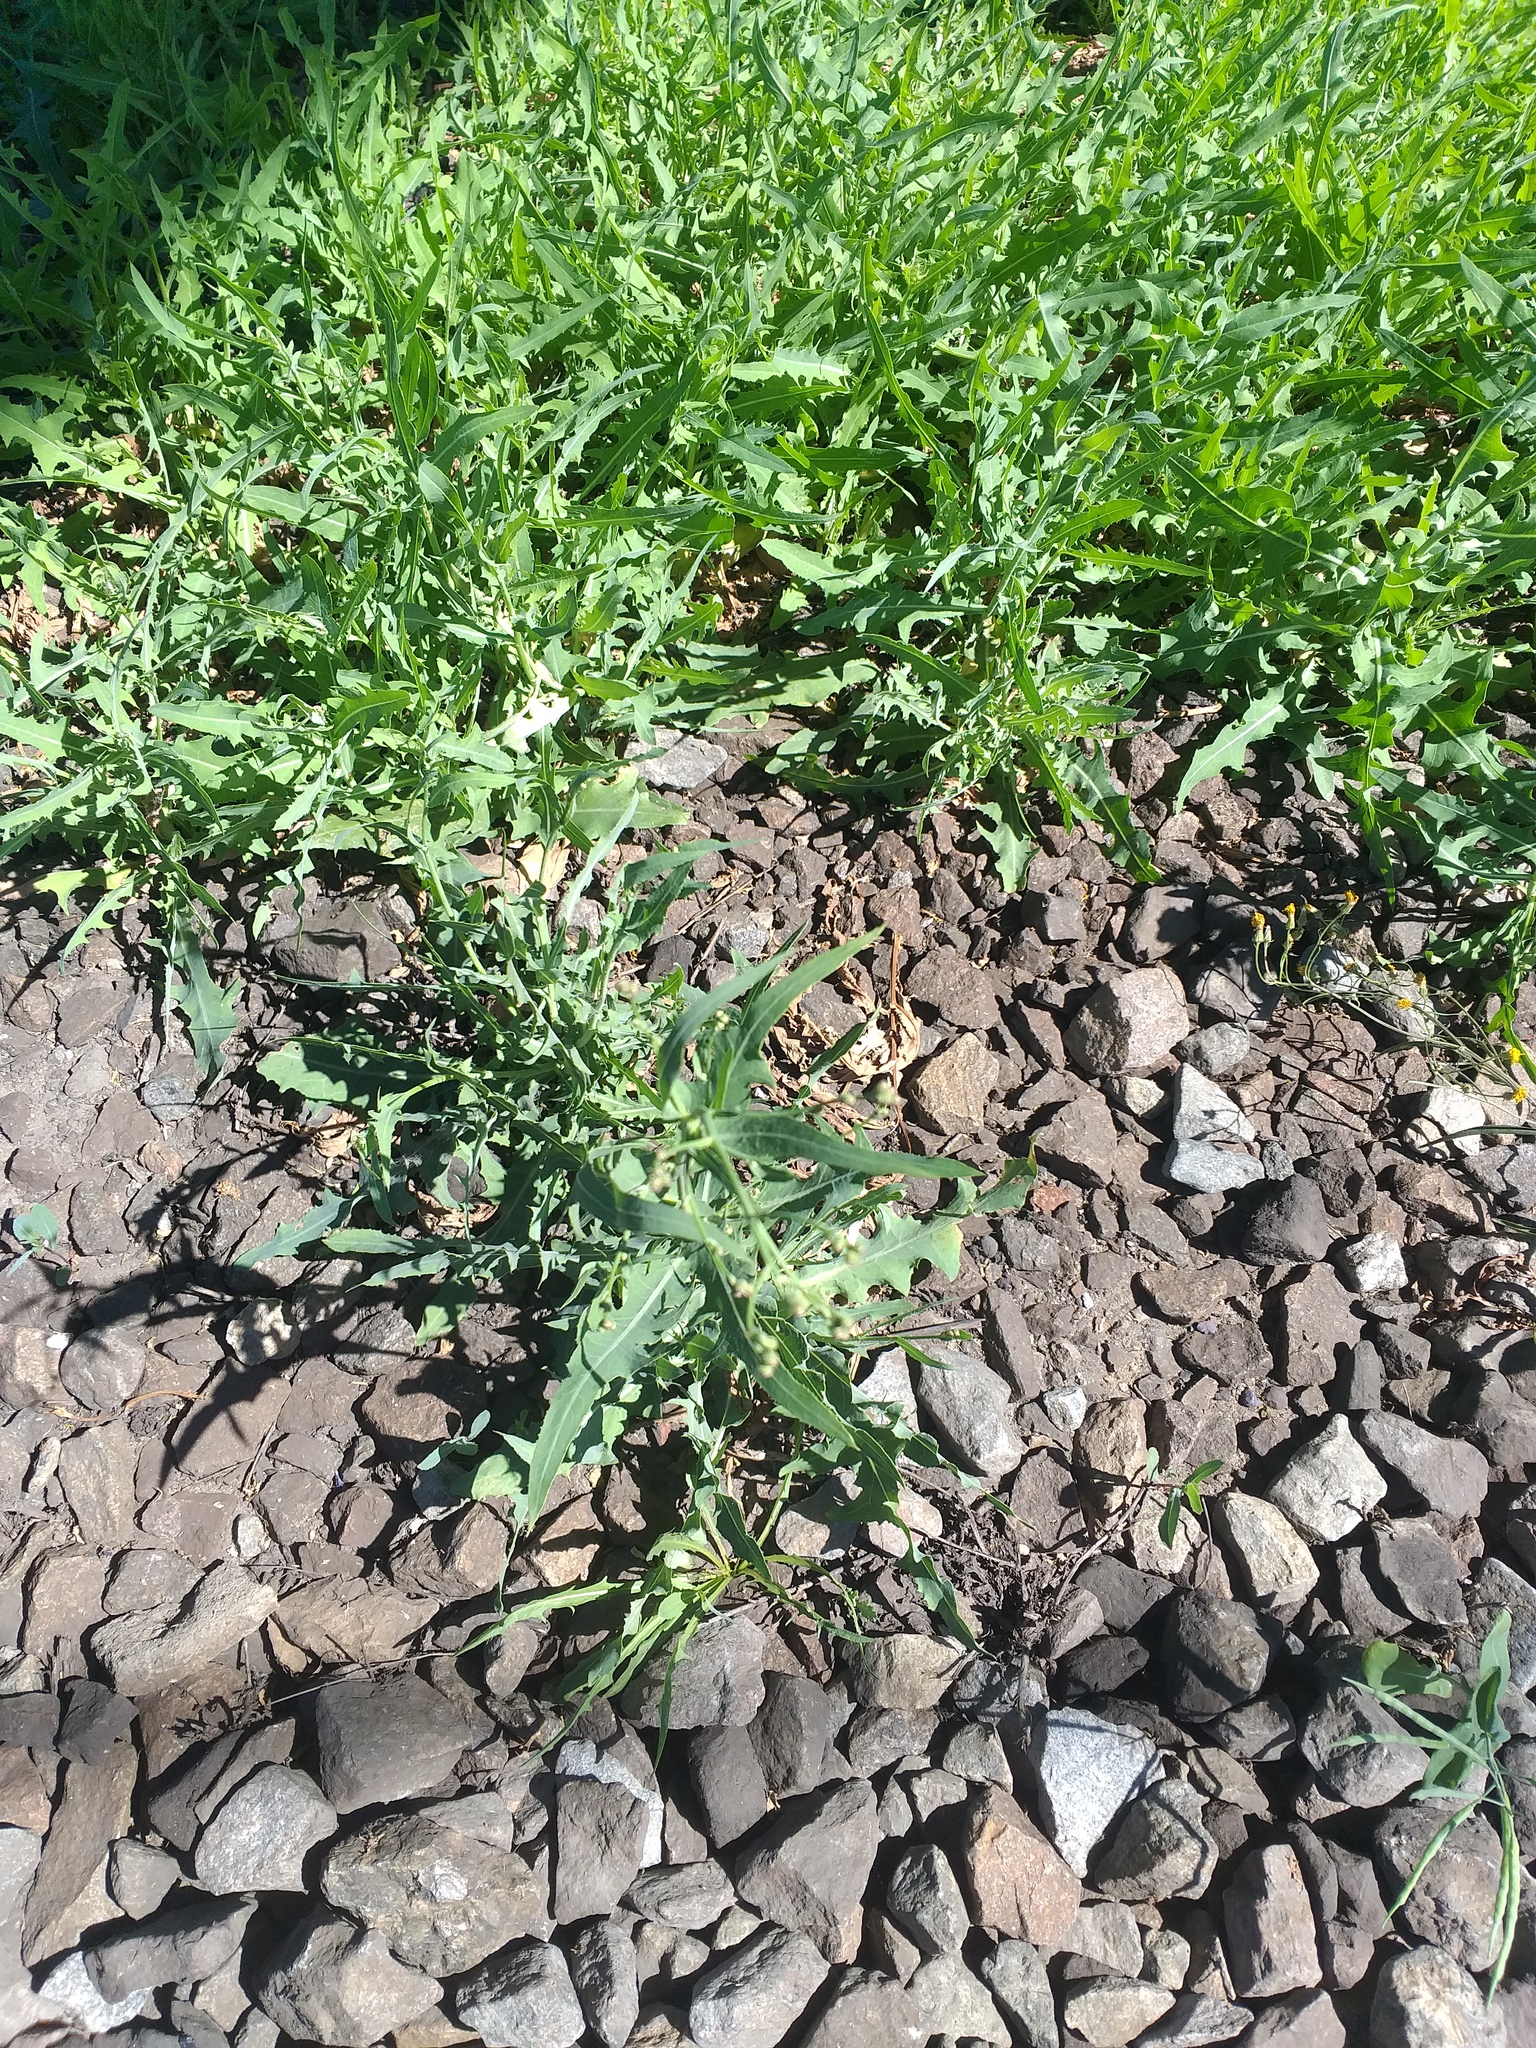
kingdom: Plantae
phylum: Tracheophyta
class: Magnoliopsida
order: Asterales
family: Asteraceae
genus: Lactuca
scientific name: Lactuca tatarica
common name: Blue lettuce
